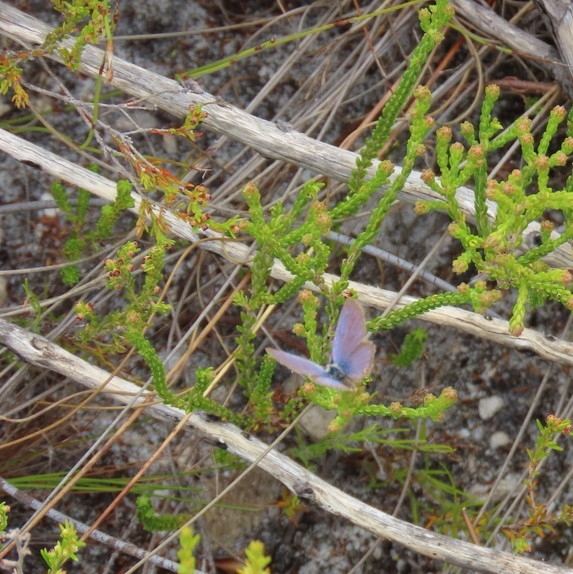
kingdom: Animalia
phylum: Arthropoda
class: Insecta
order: Lepidoptera
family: Lycaenidae
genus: Eicochrysops
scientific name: Eicochrysops messapus
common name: Cupreous blue
